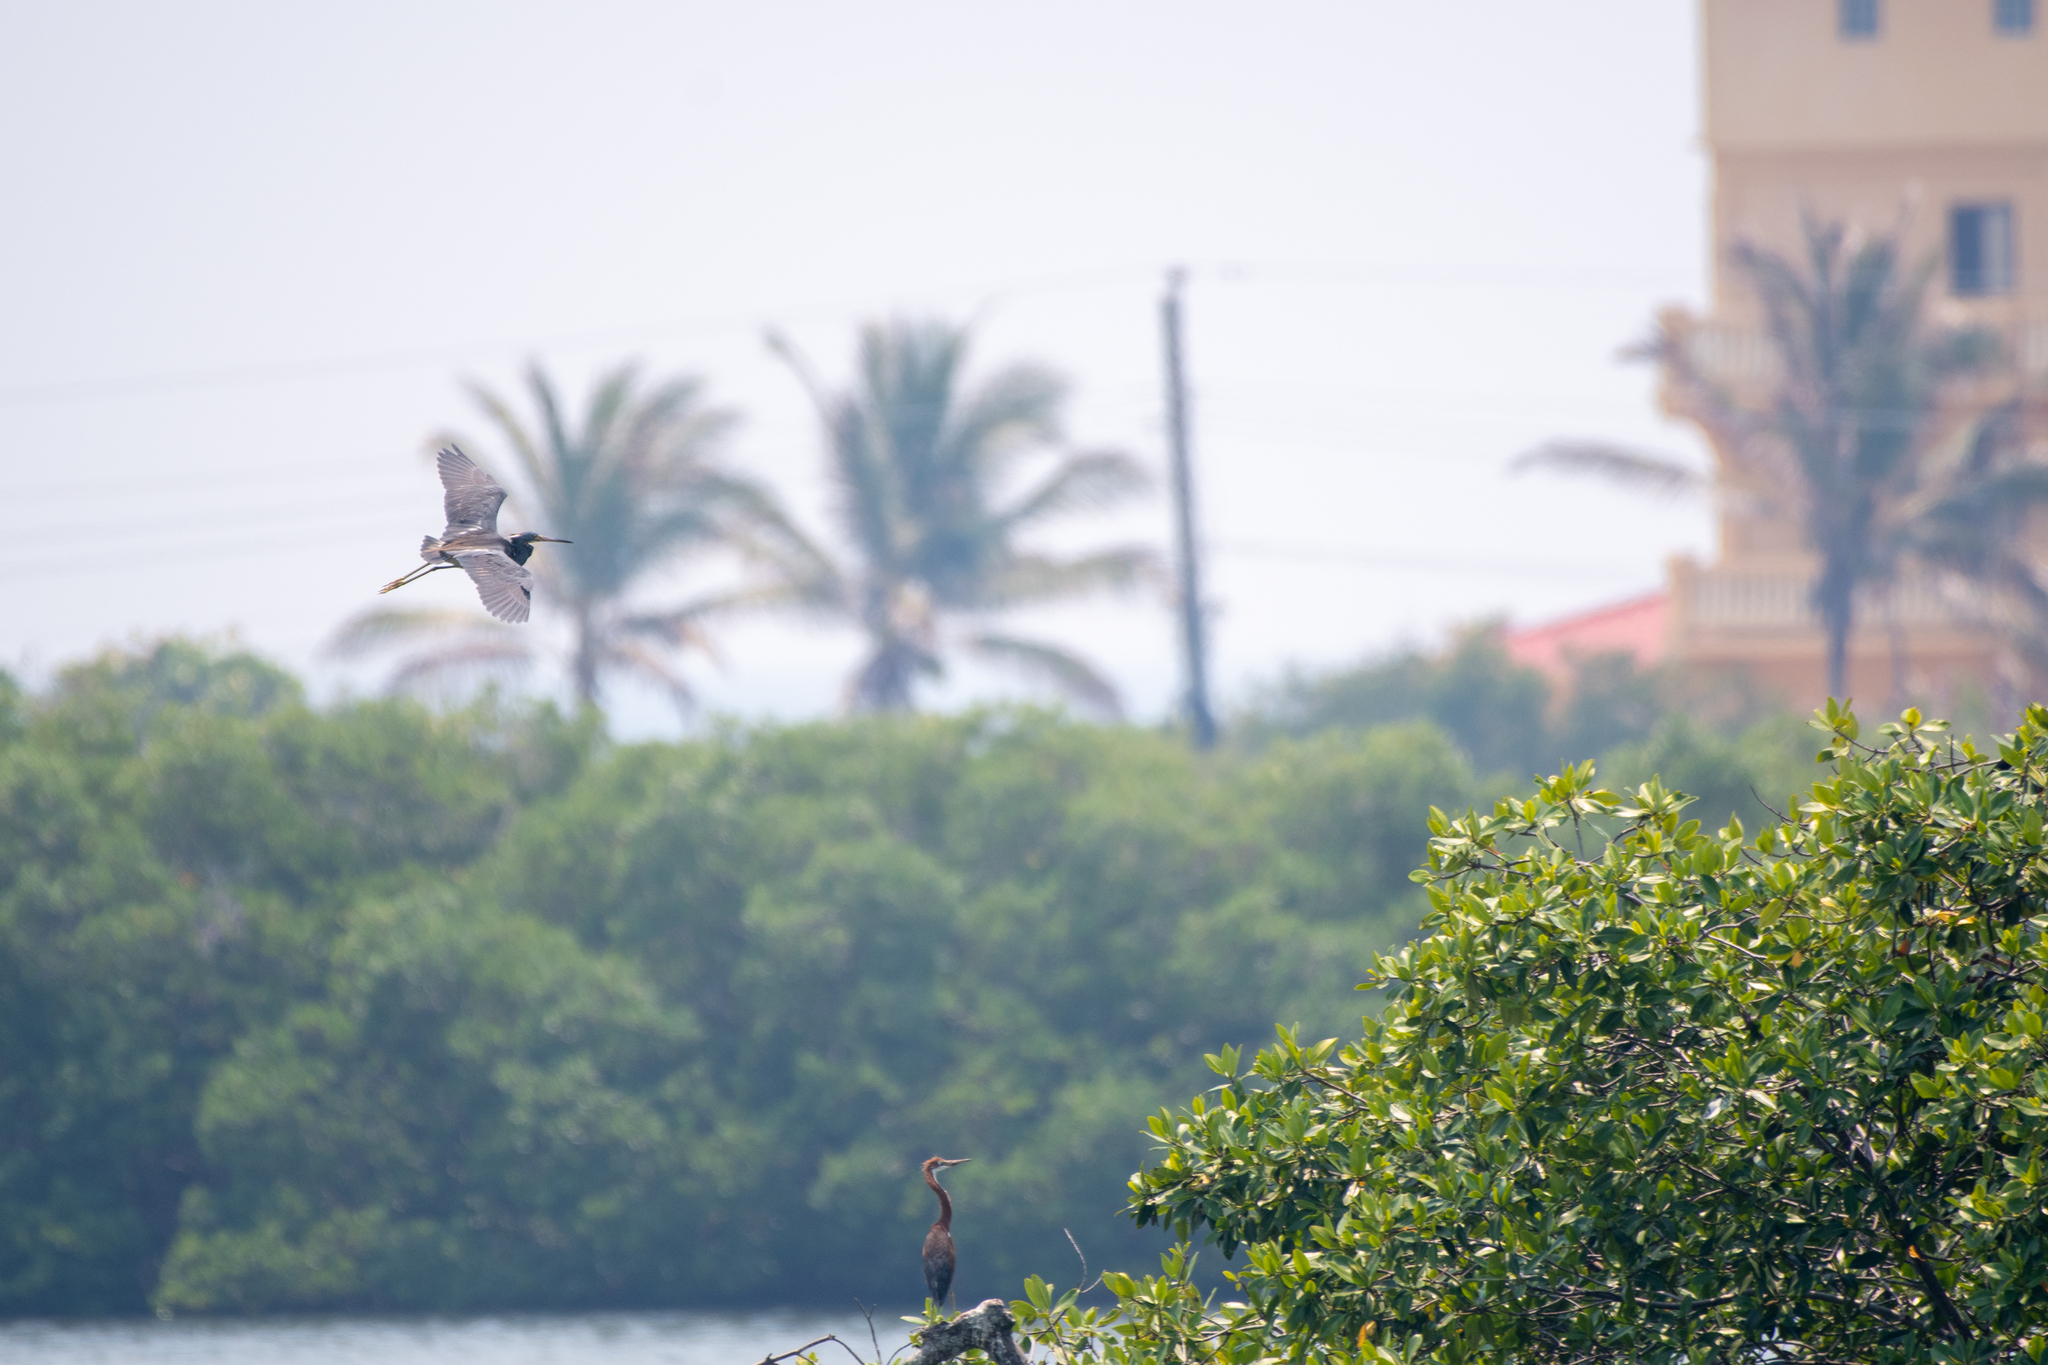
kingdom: Animalia
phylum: Chordata
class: Aves
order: Pelecaniformes
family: Ardeidae
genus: Egretta
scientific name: Egretta tricolor
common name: Tricolored heron
